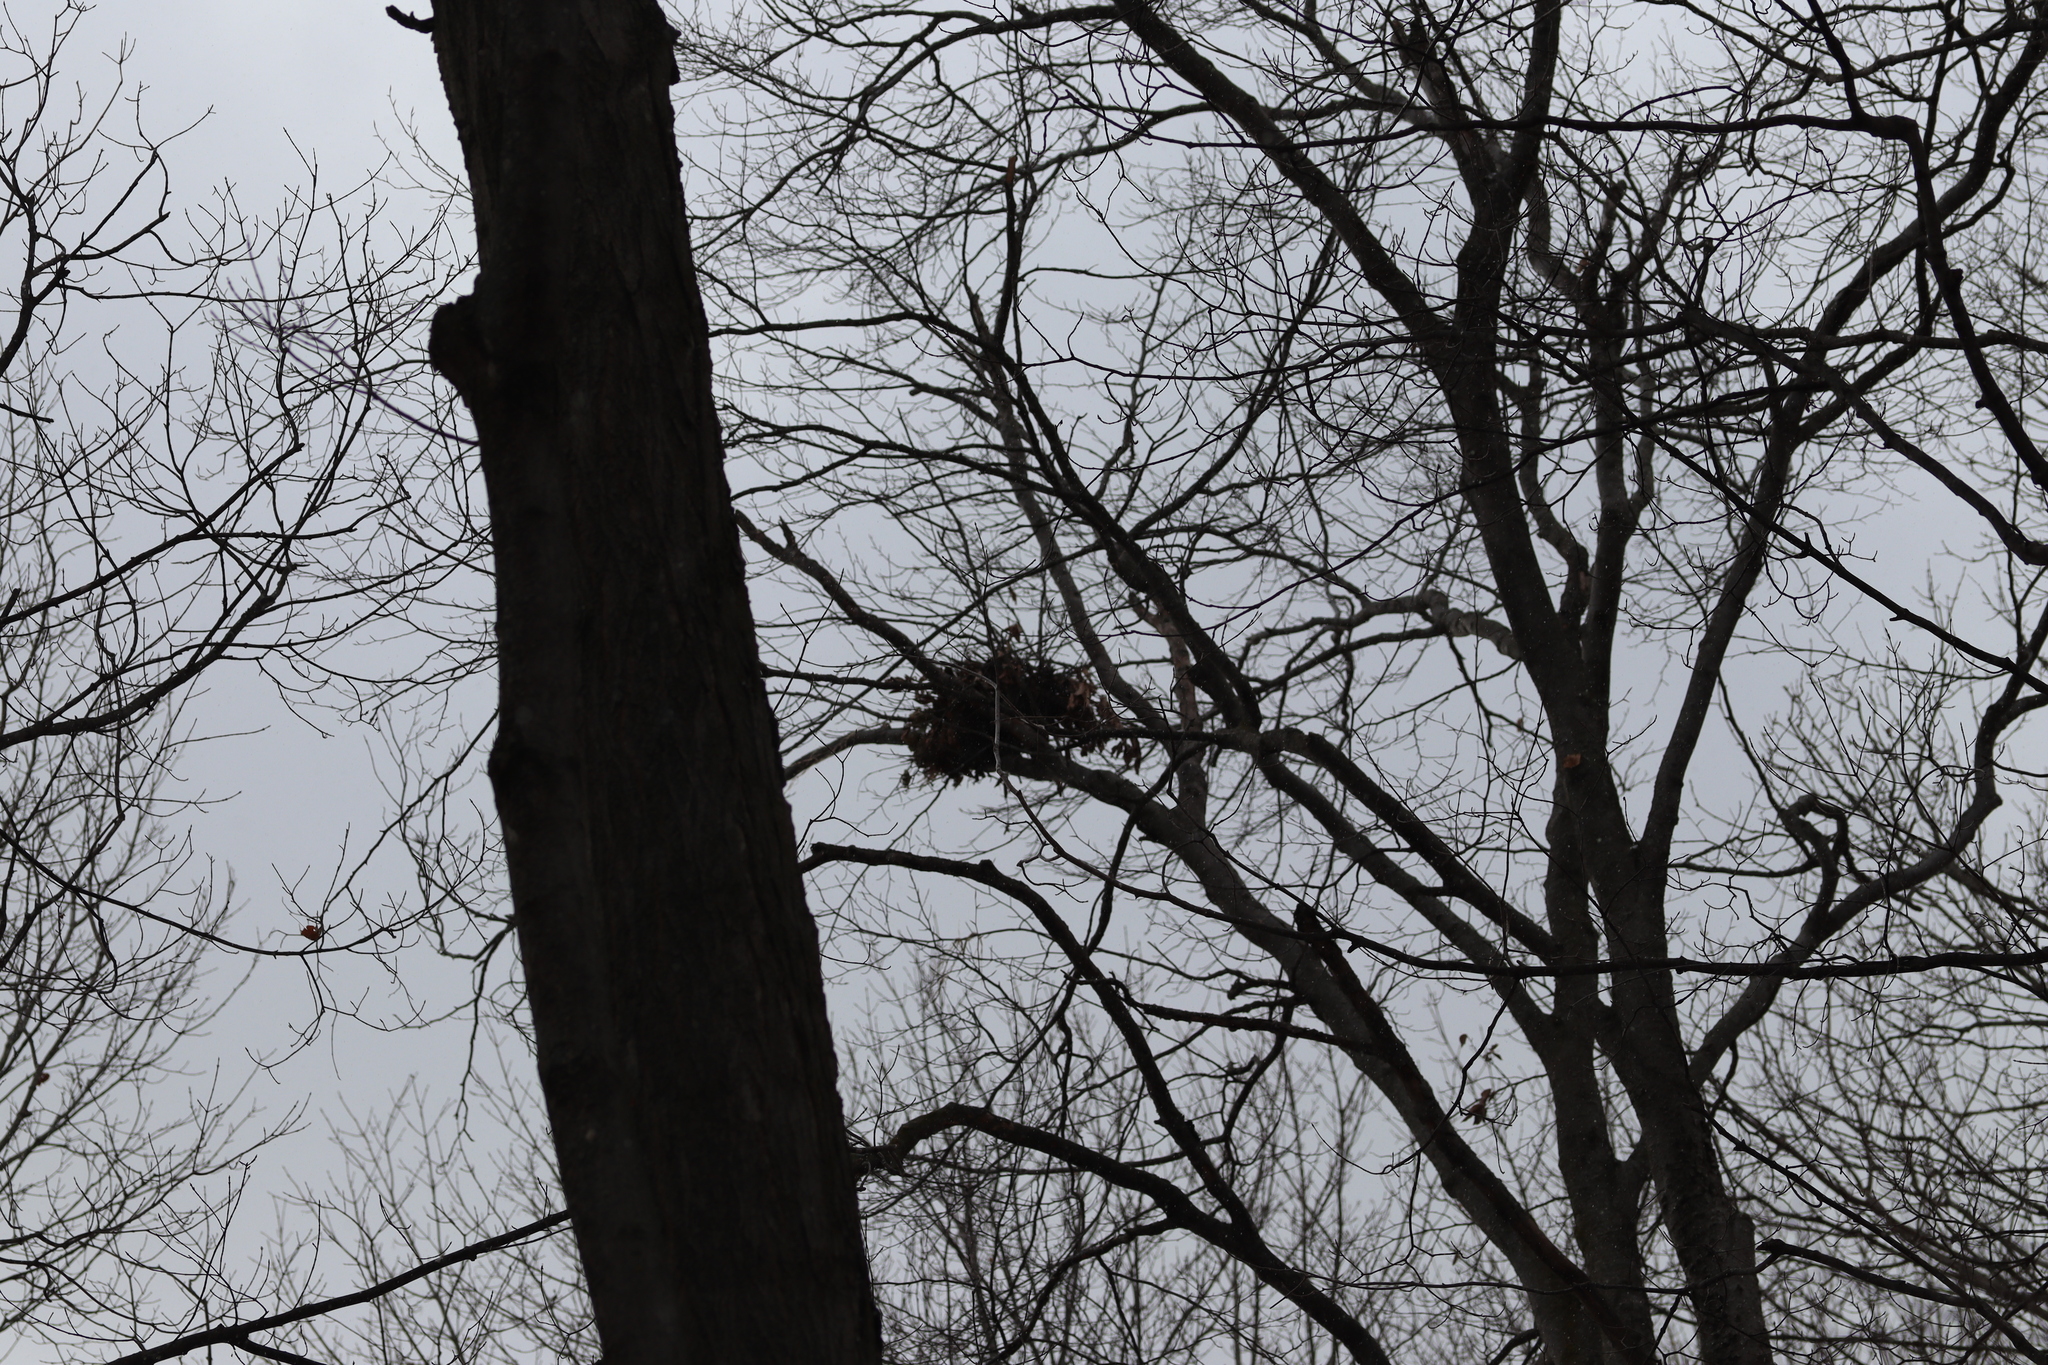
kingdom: Animalia
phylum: Chordata
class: Mammalia
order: Rodentia
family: Sciuridae
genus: Sciurus
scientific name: Sciurus carolinensis
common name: Eastern gray squirrel
